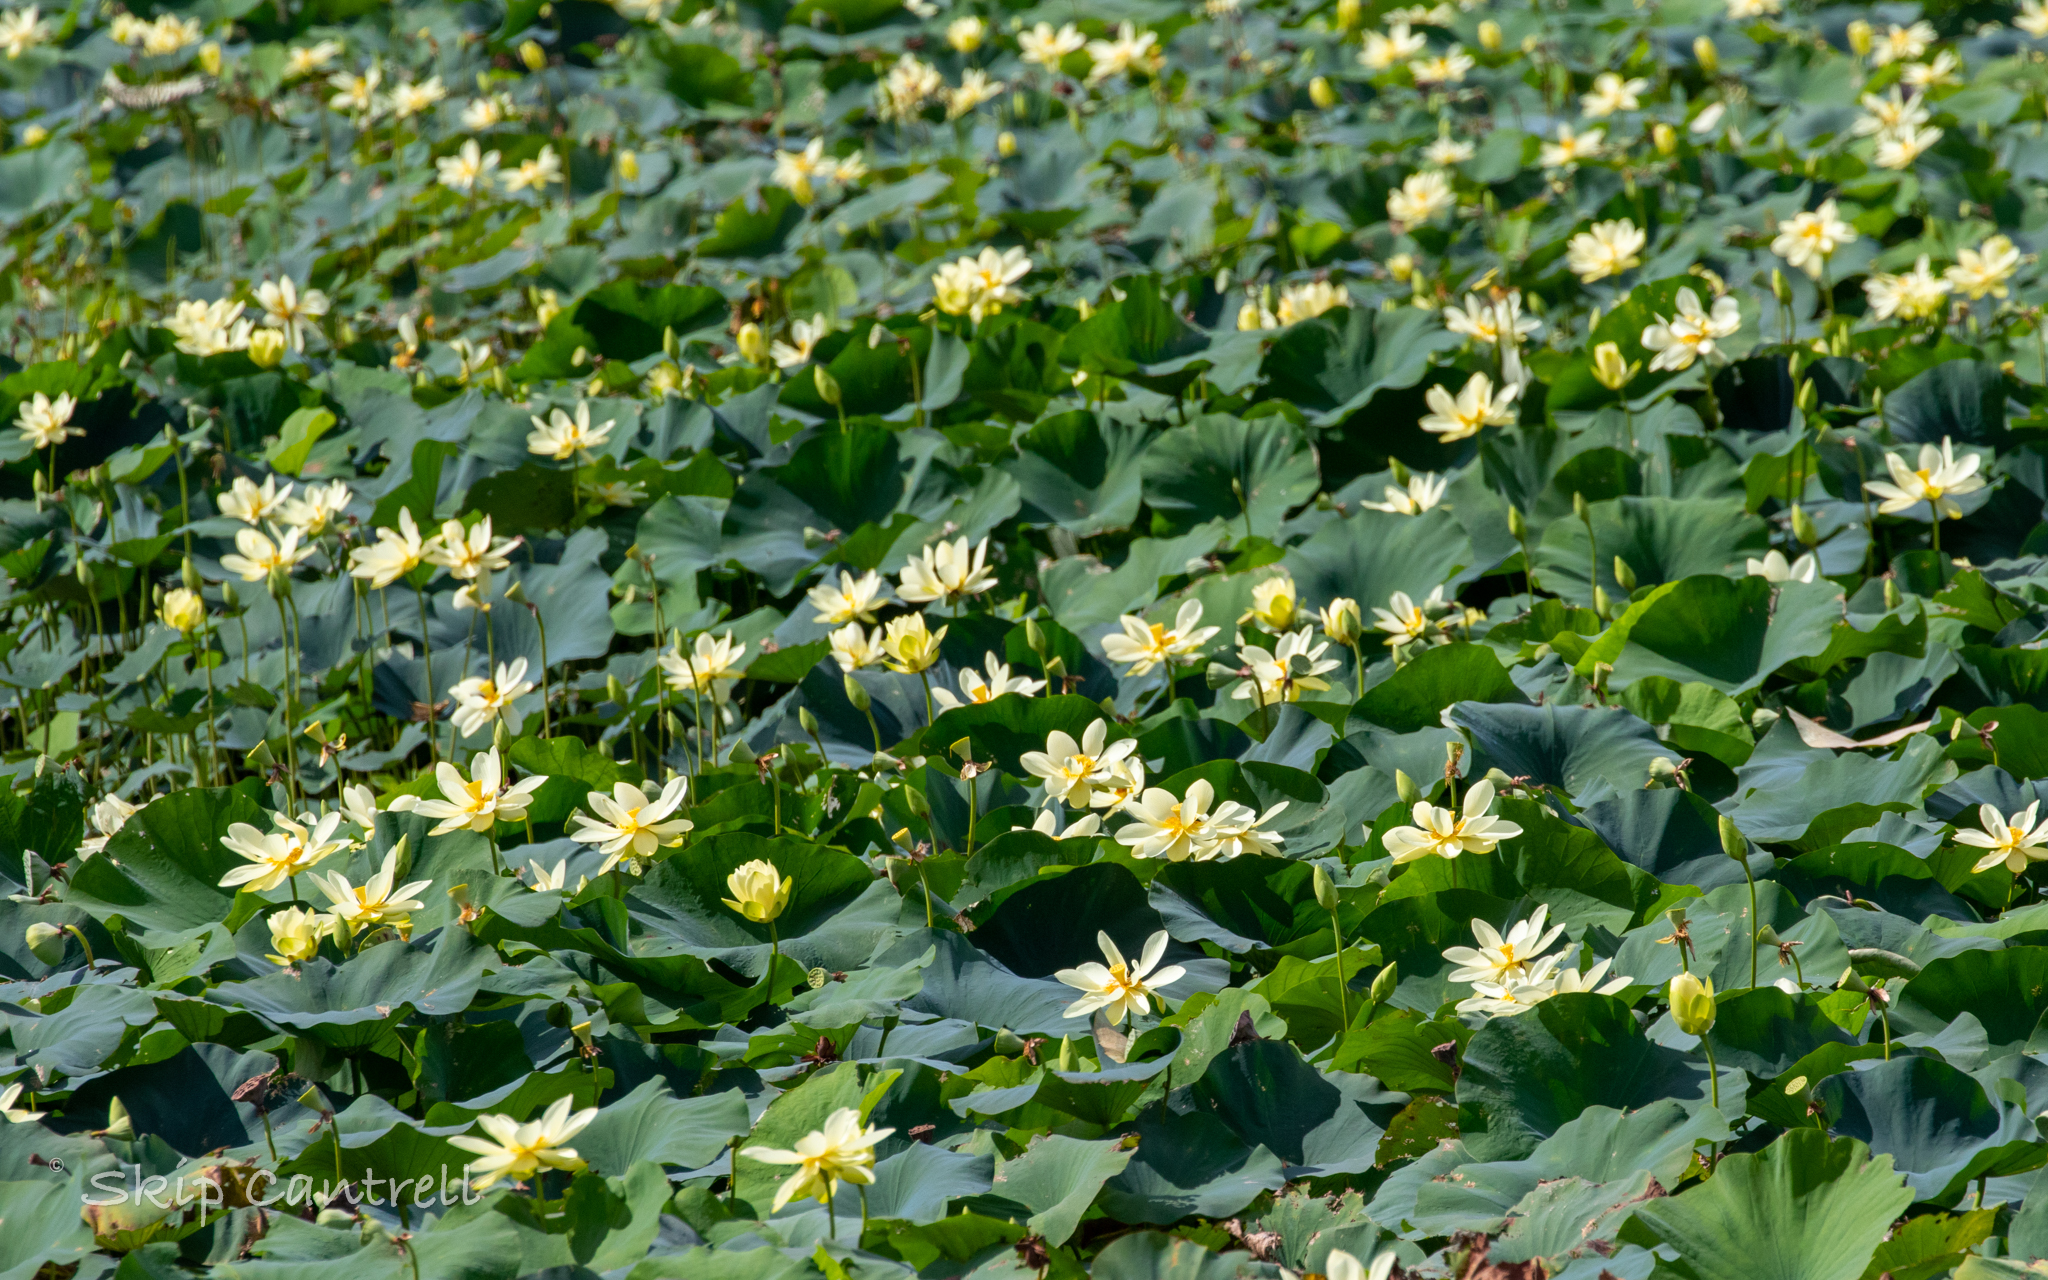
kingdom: Plantae
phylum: Tracheophyta
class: Magnoliopsida
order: Proteales
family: Nelumbonaceae
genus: Nelumbo
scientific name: Nelumbo lutea
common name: American lotus
